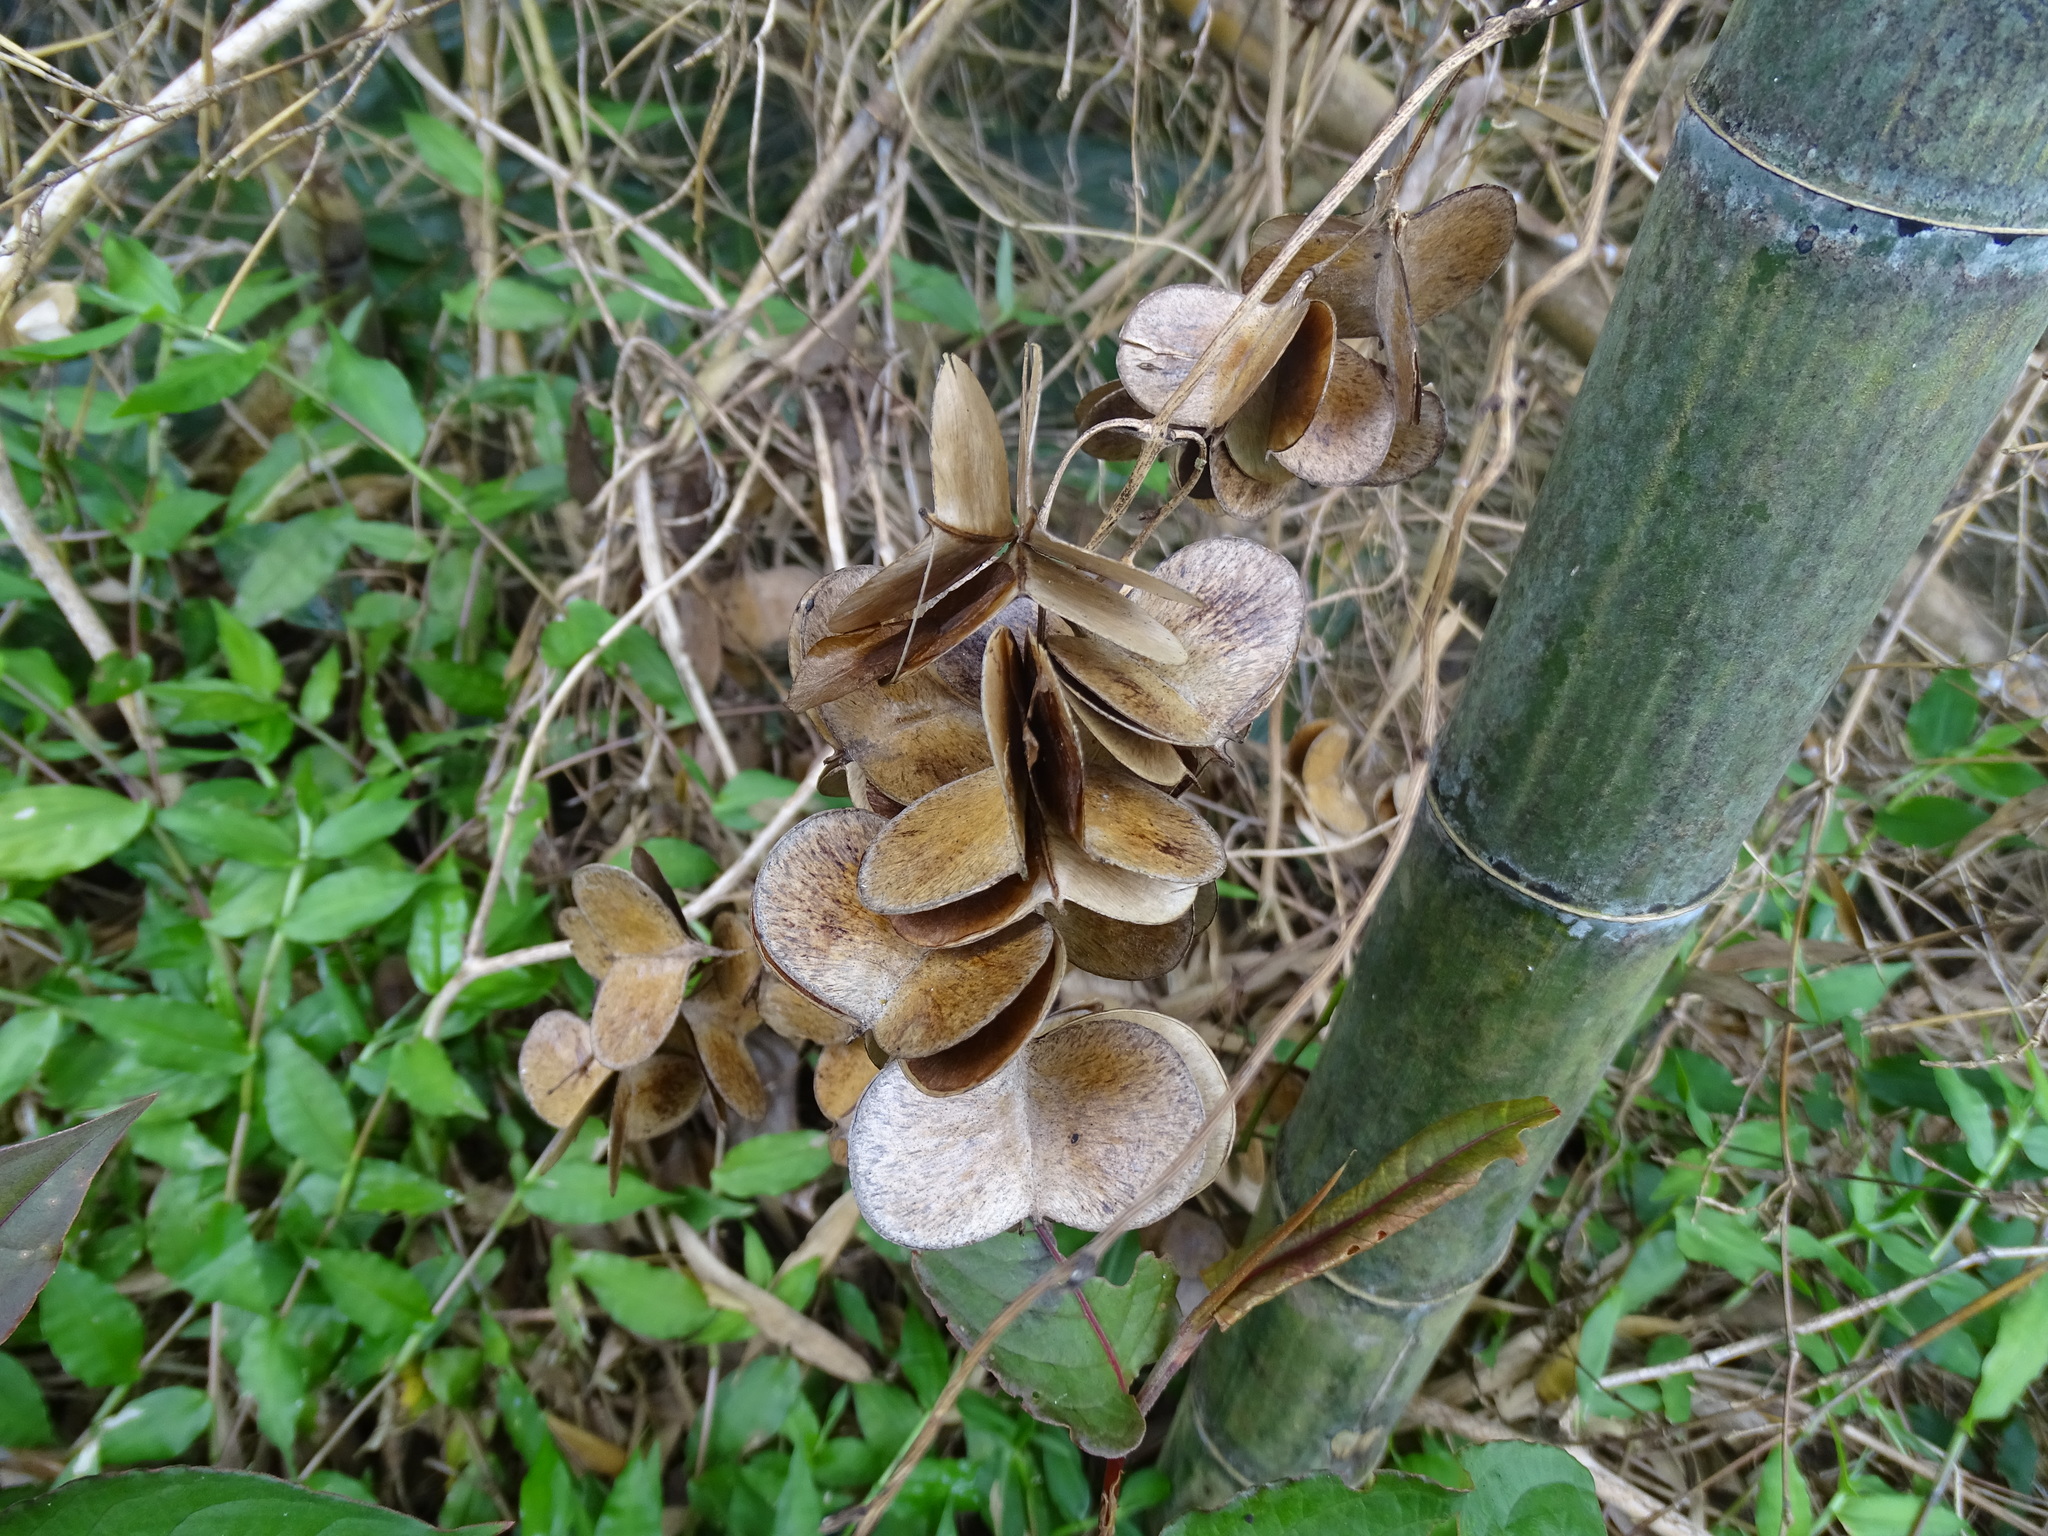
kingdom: Plantae
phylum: Tracheophyta
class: Liliopsida
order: Dioscoreales
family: Dioscoreaceae
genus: Dioscorea
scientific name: Dioscorea cirrhosa
